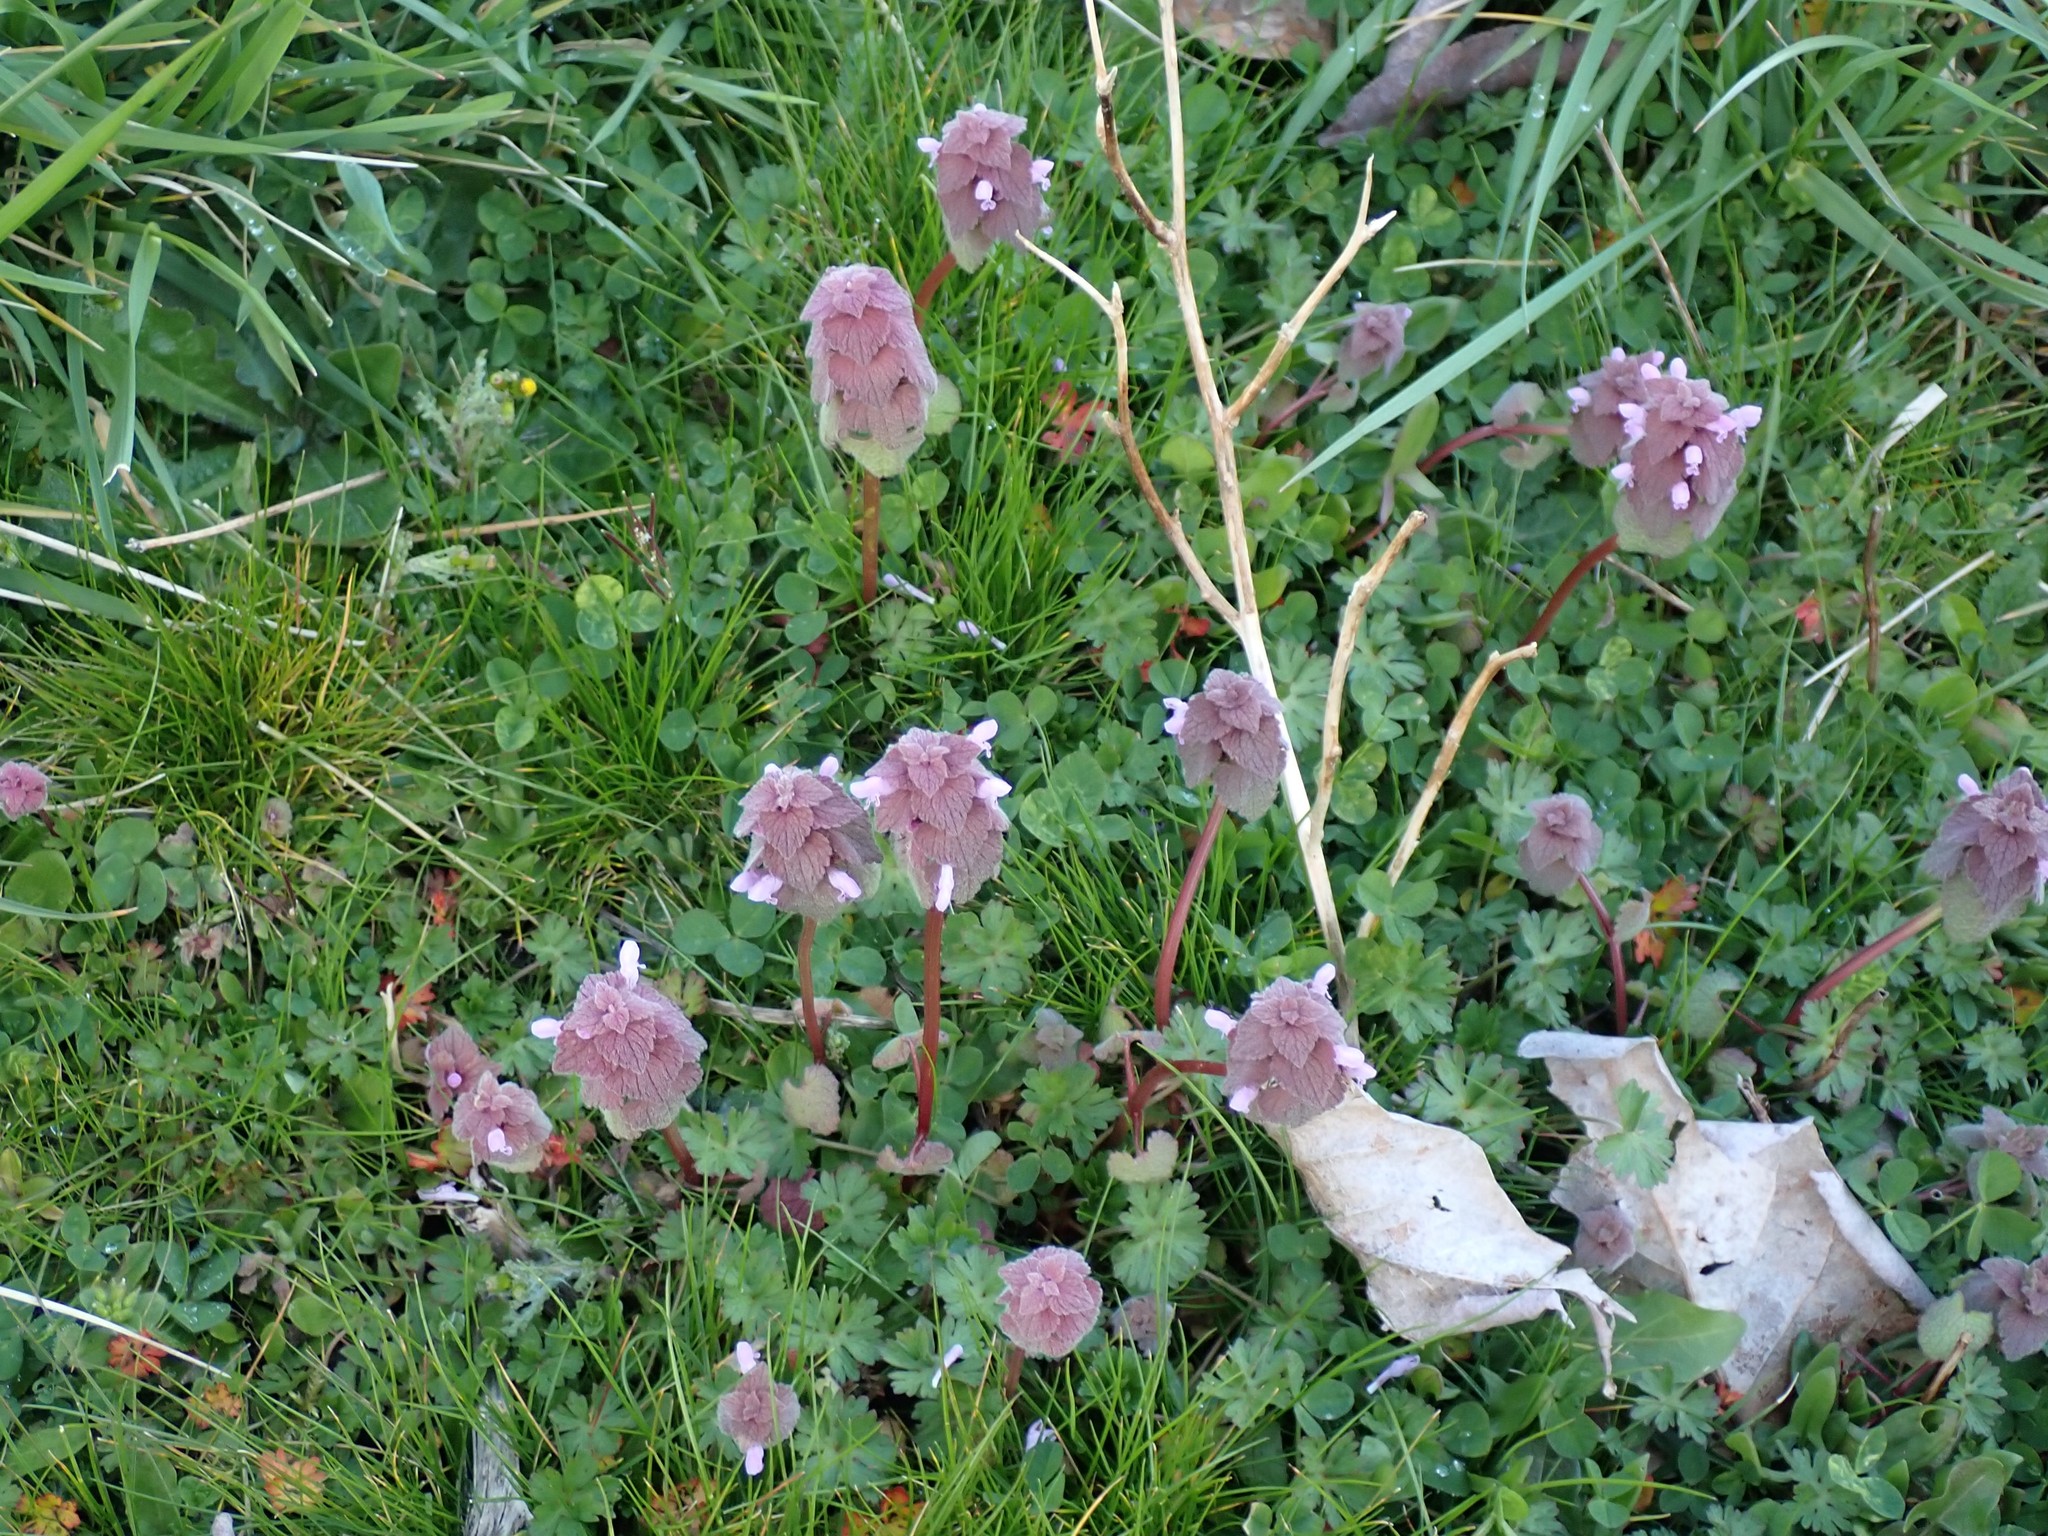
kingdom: Plantae
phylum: Tracheophyta
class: Magnoliopsida
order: Lamiales
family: Lamiaceae
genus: Lamium
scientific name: Lamium purpureum
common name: Red dead-nettle
